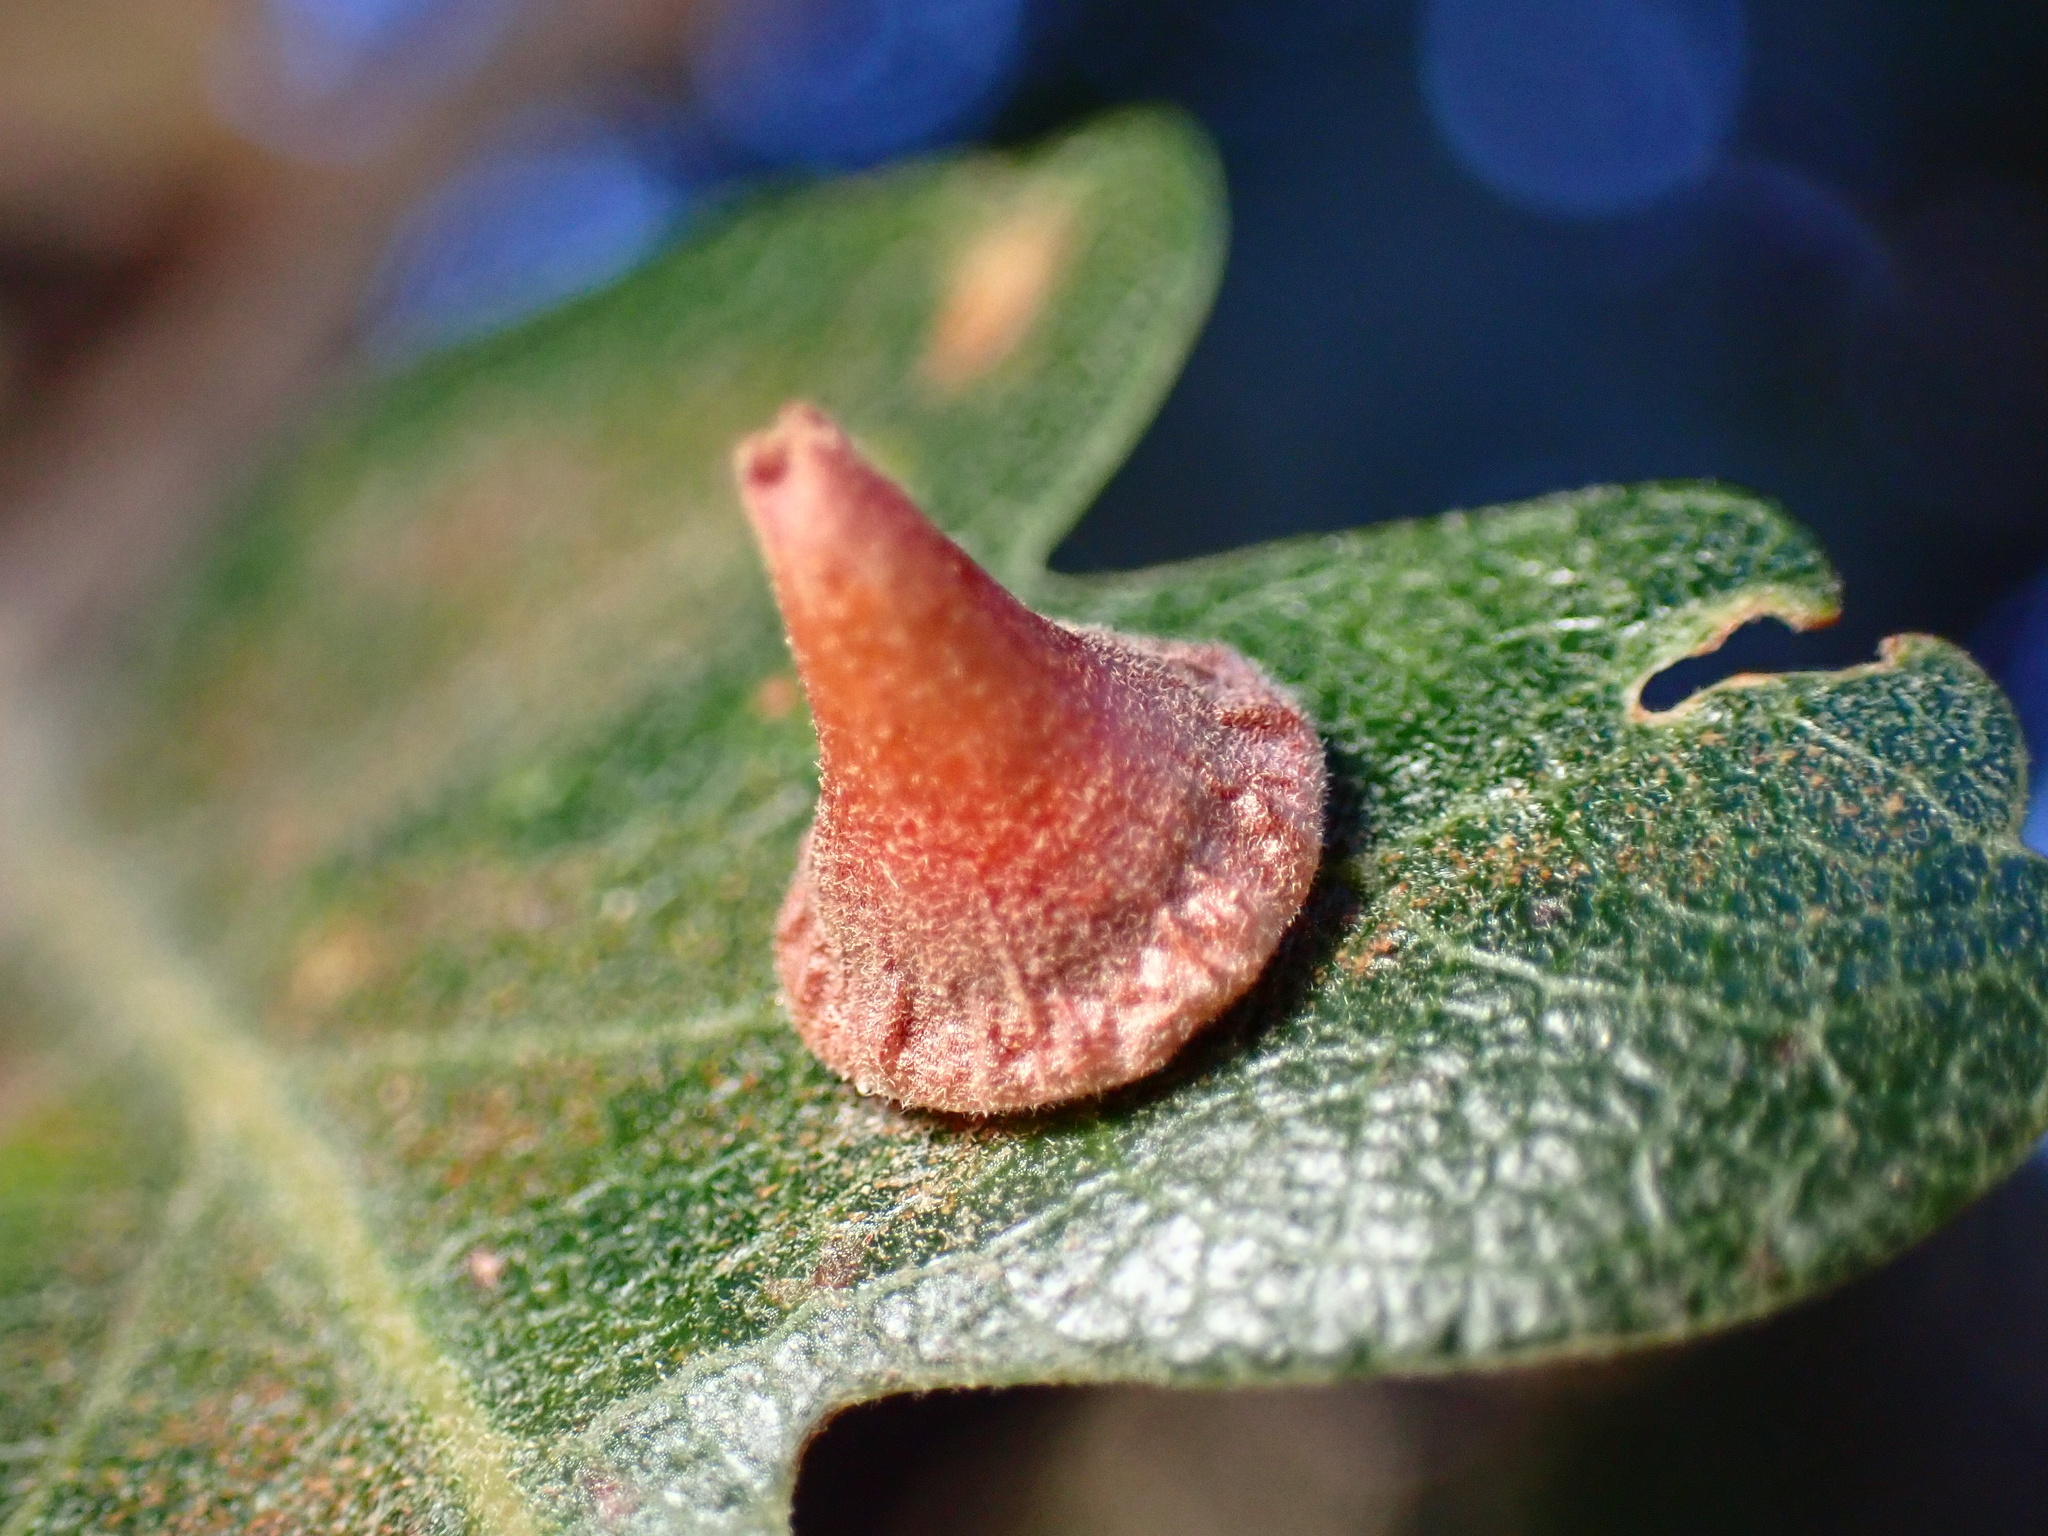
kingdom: Animalia
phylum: Arthropoda
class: Insecta
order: Hymenoptera
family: Cynipidae
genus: Andricus
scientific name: Andricus
